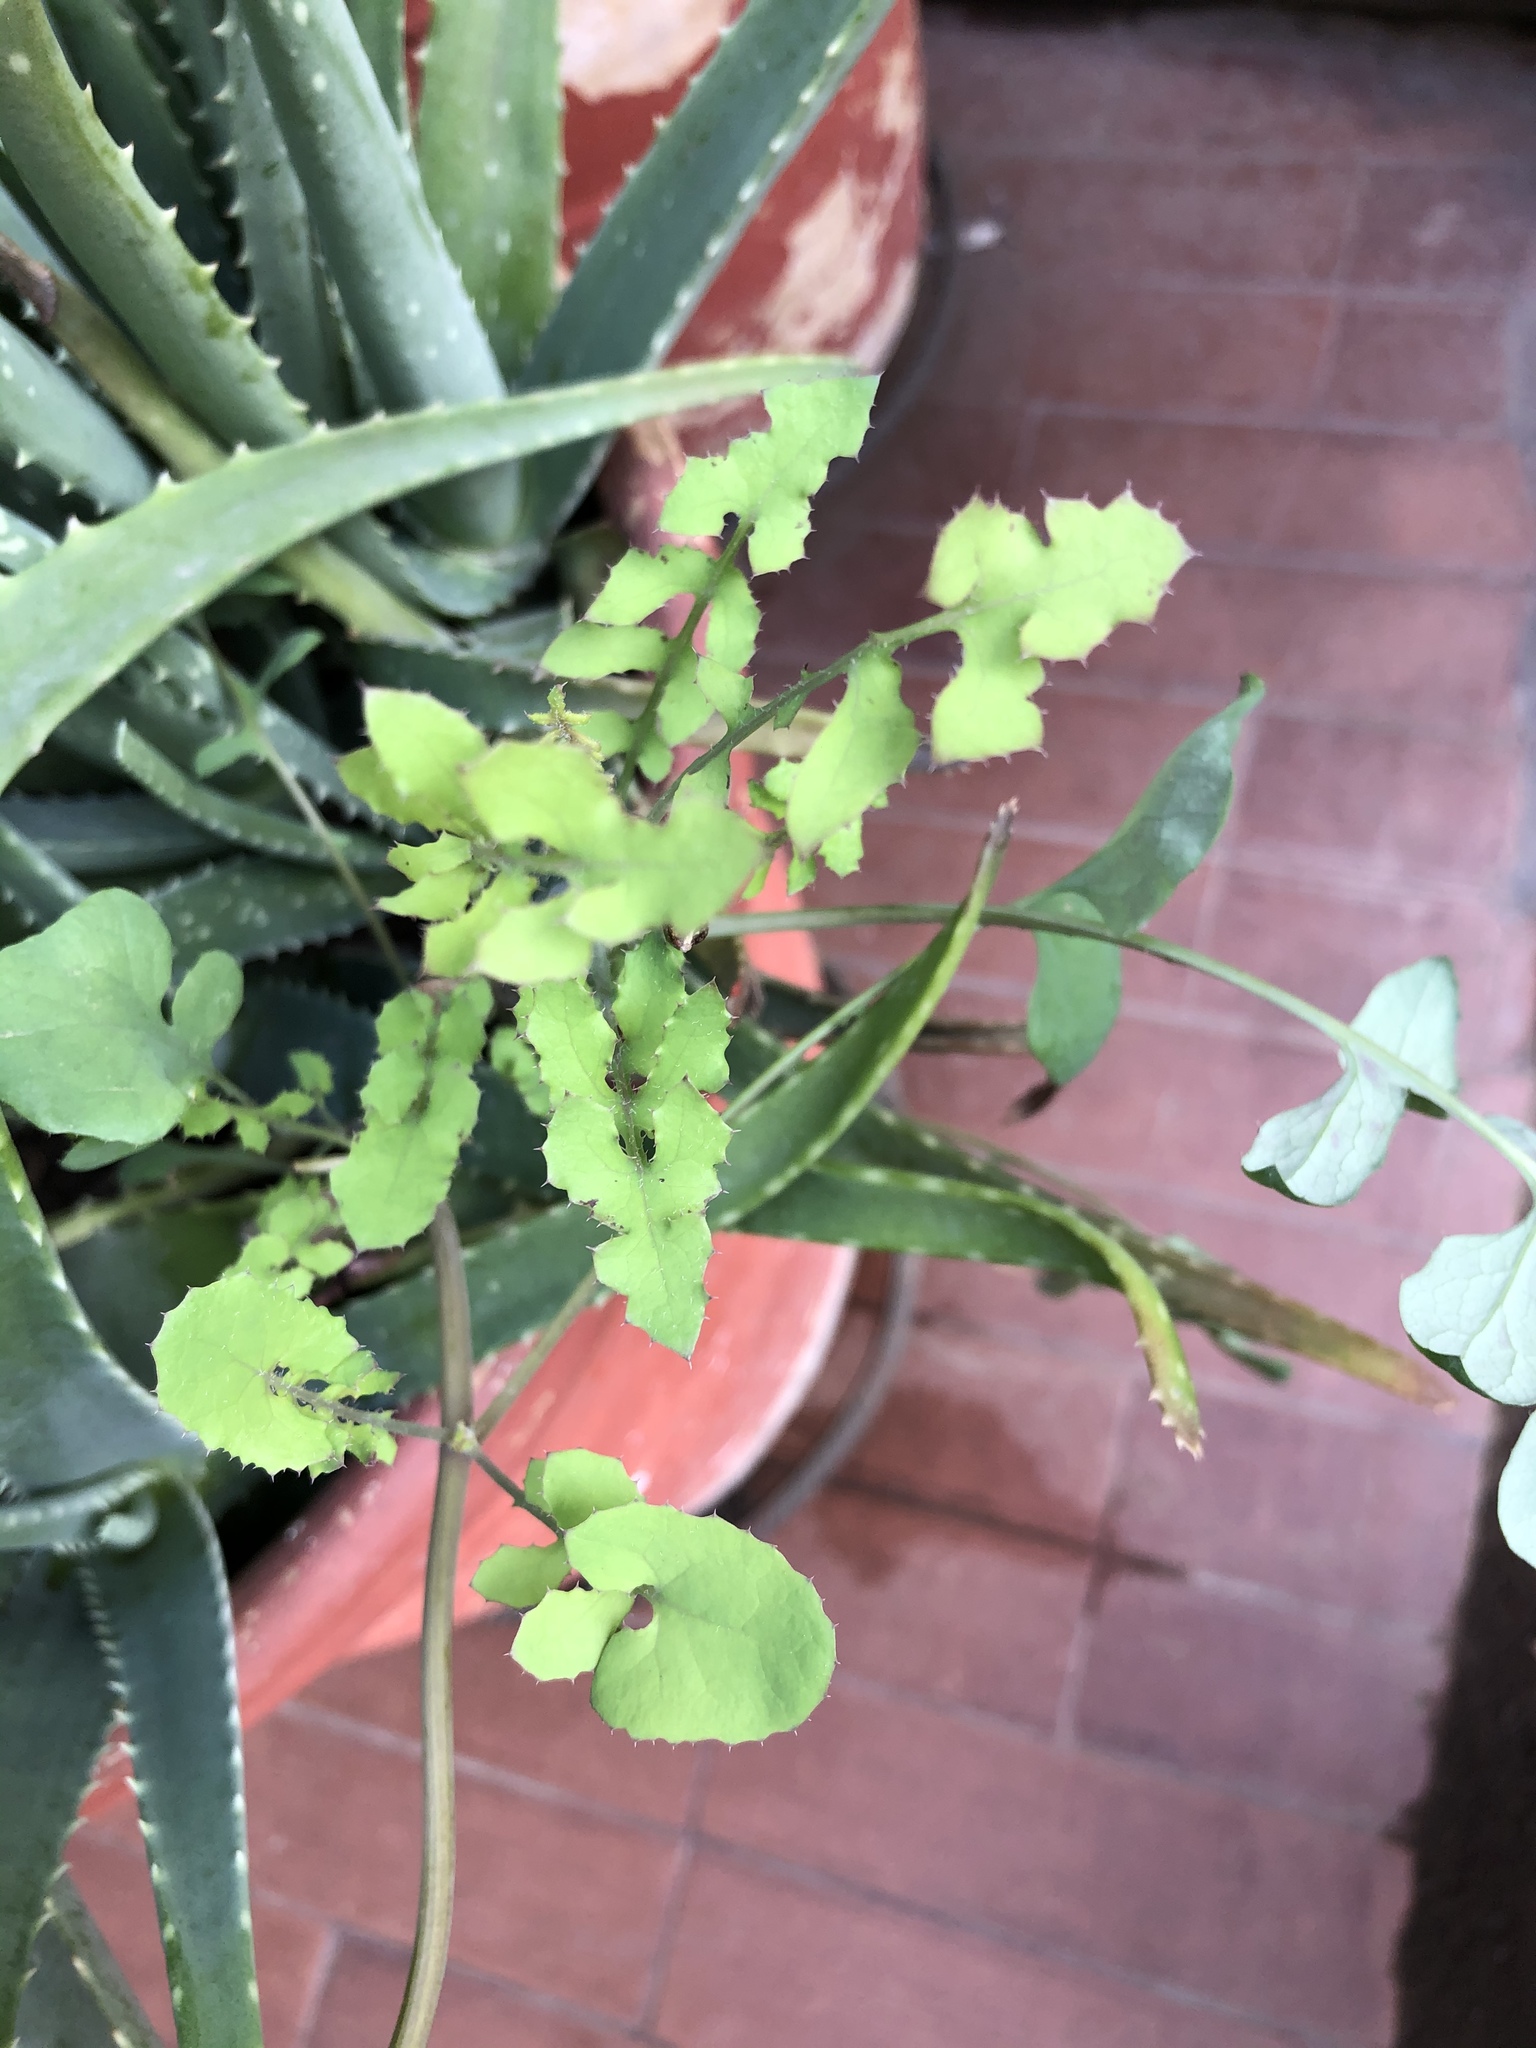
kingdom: Plantae
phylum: Tracheophyta
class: Magnoliopsida
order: Asterales
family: Asteraceae
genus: Sonchus
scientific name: Sonchus oleraceus
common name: Common sowthistle
